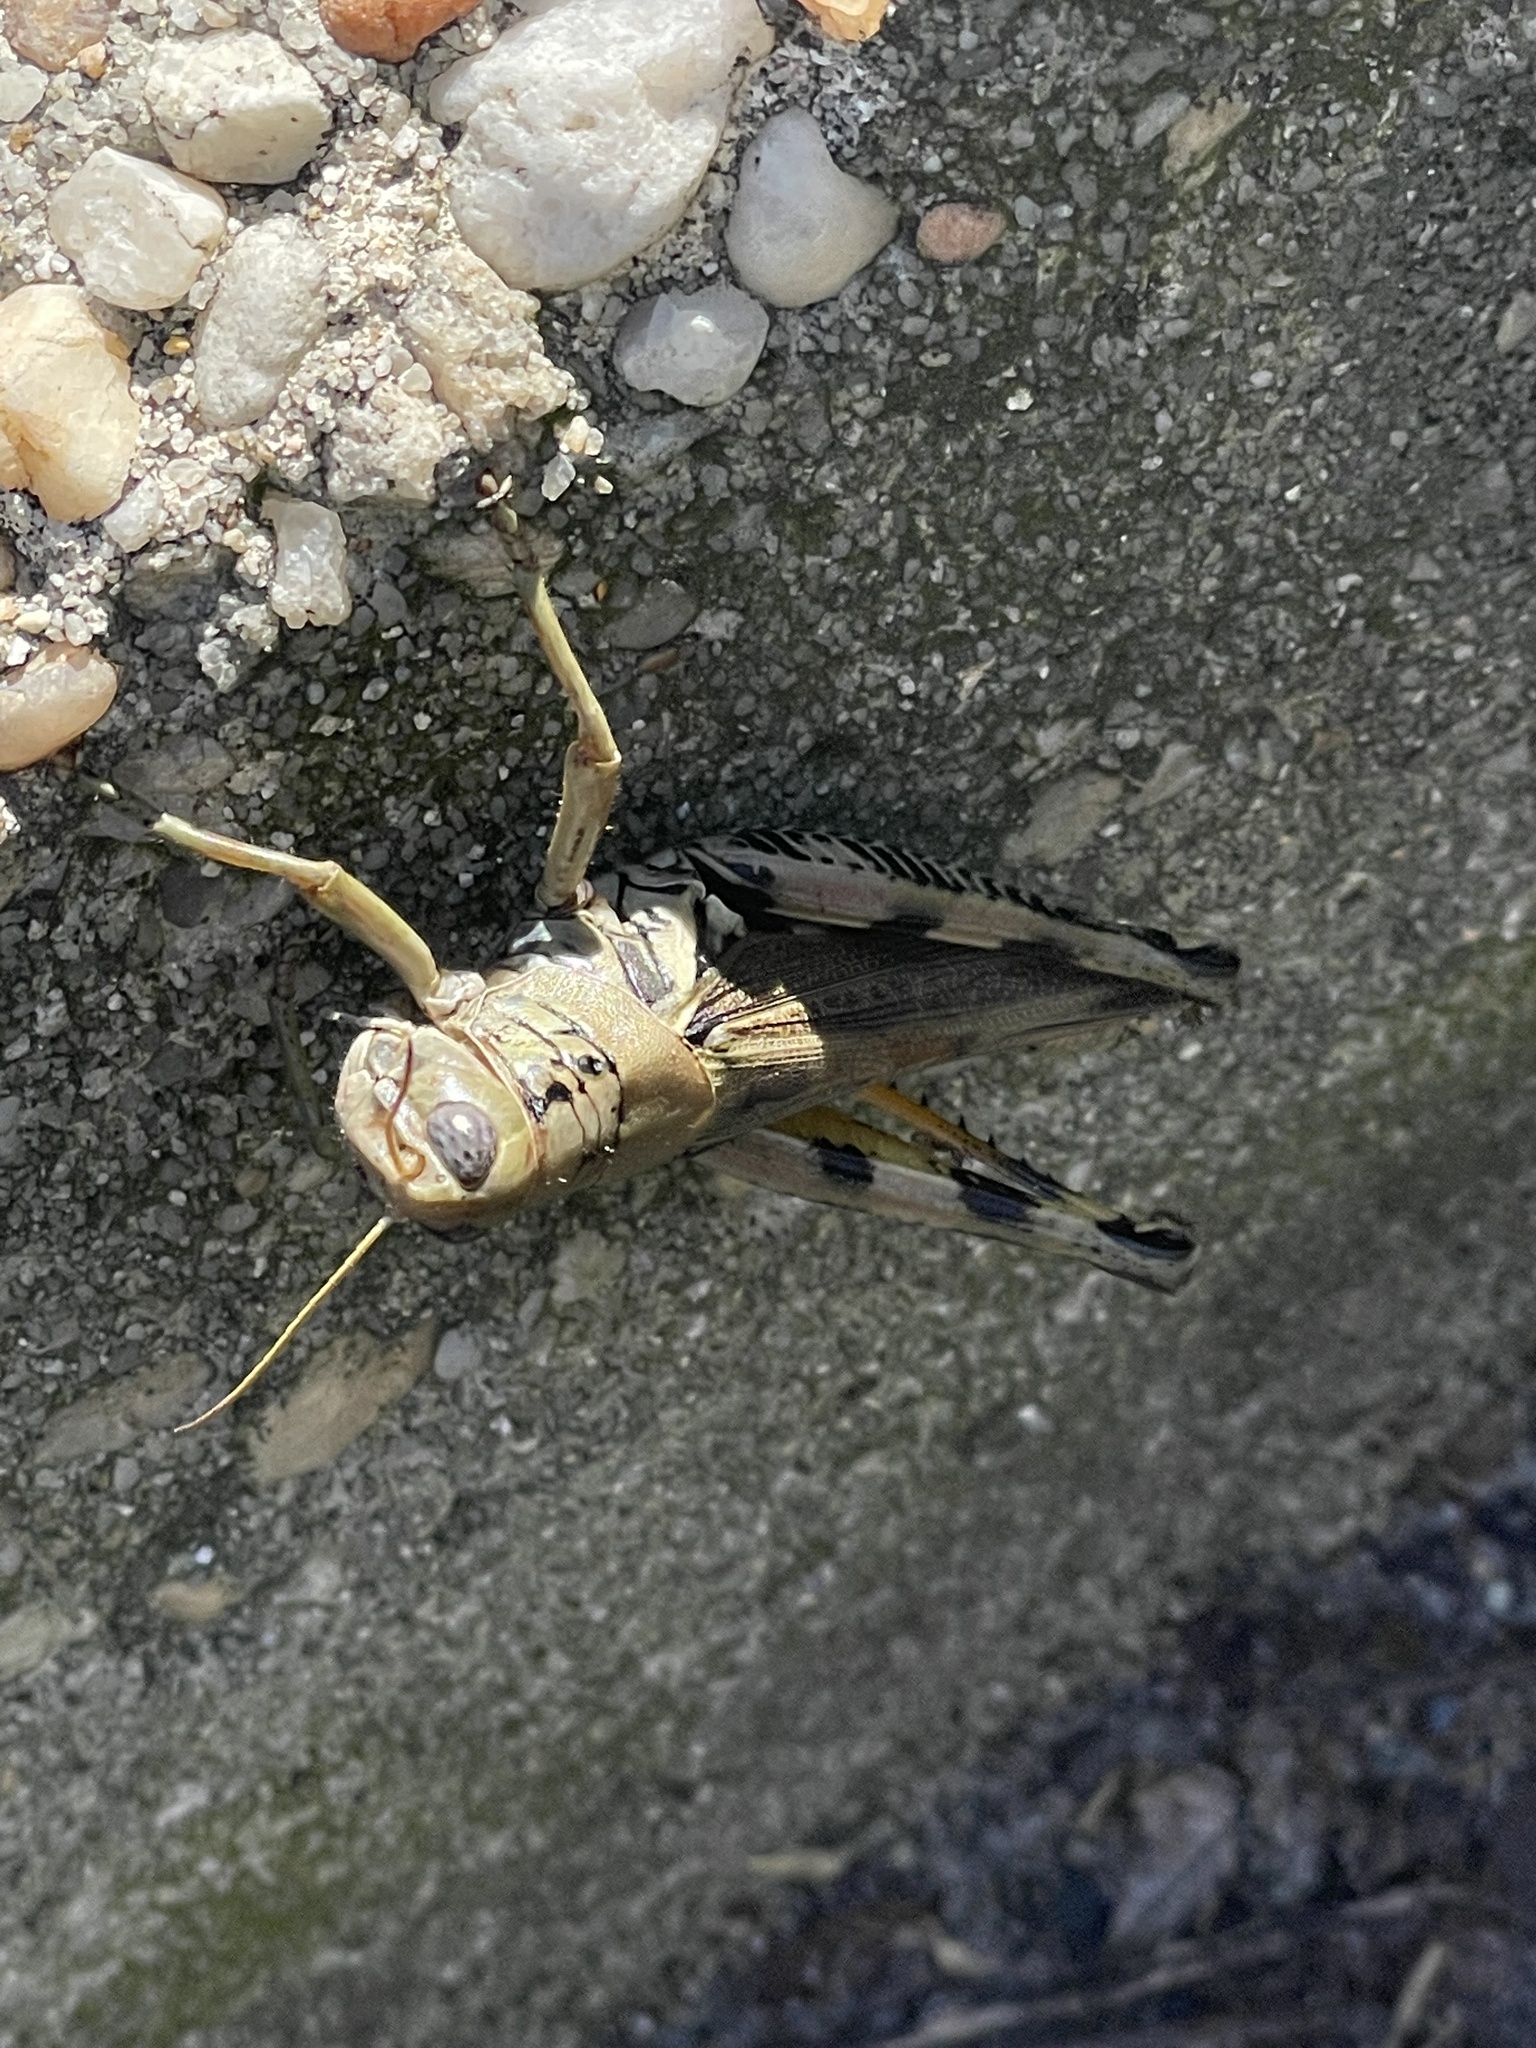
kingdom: Animalia
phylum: Arthropoda
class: Insecta
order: Orthoptera
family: Acrididae
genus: Melanoplus
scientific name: Melanoplus differentialis
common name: Differential grasshopper
